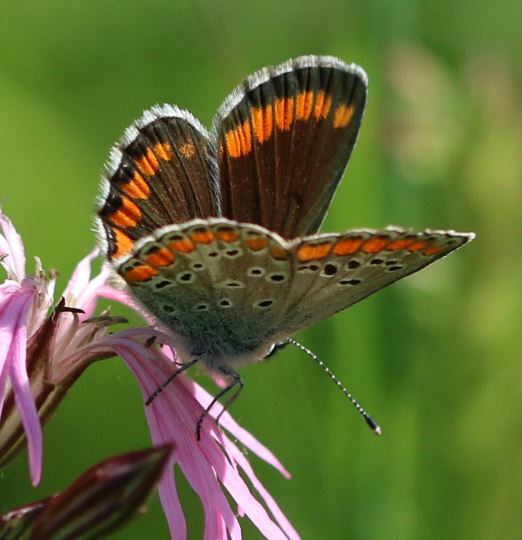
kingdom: Animalia
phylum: Arthropoda
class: Insecta
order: Lepidoptera
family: Lycaenidae
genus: Aricia
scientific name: Aricia agestis
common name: Brown argus
